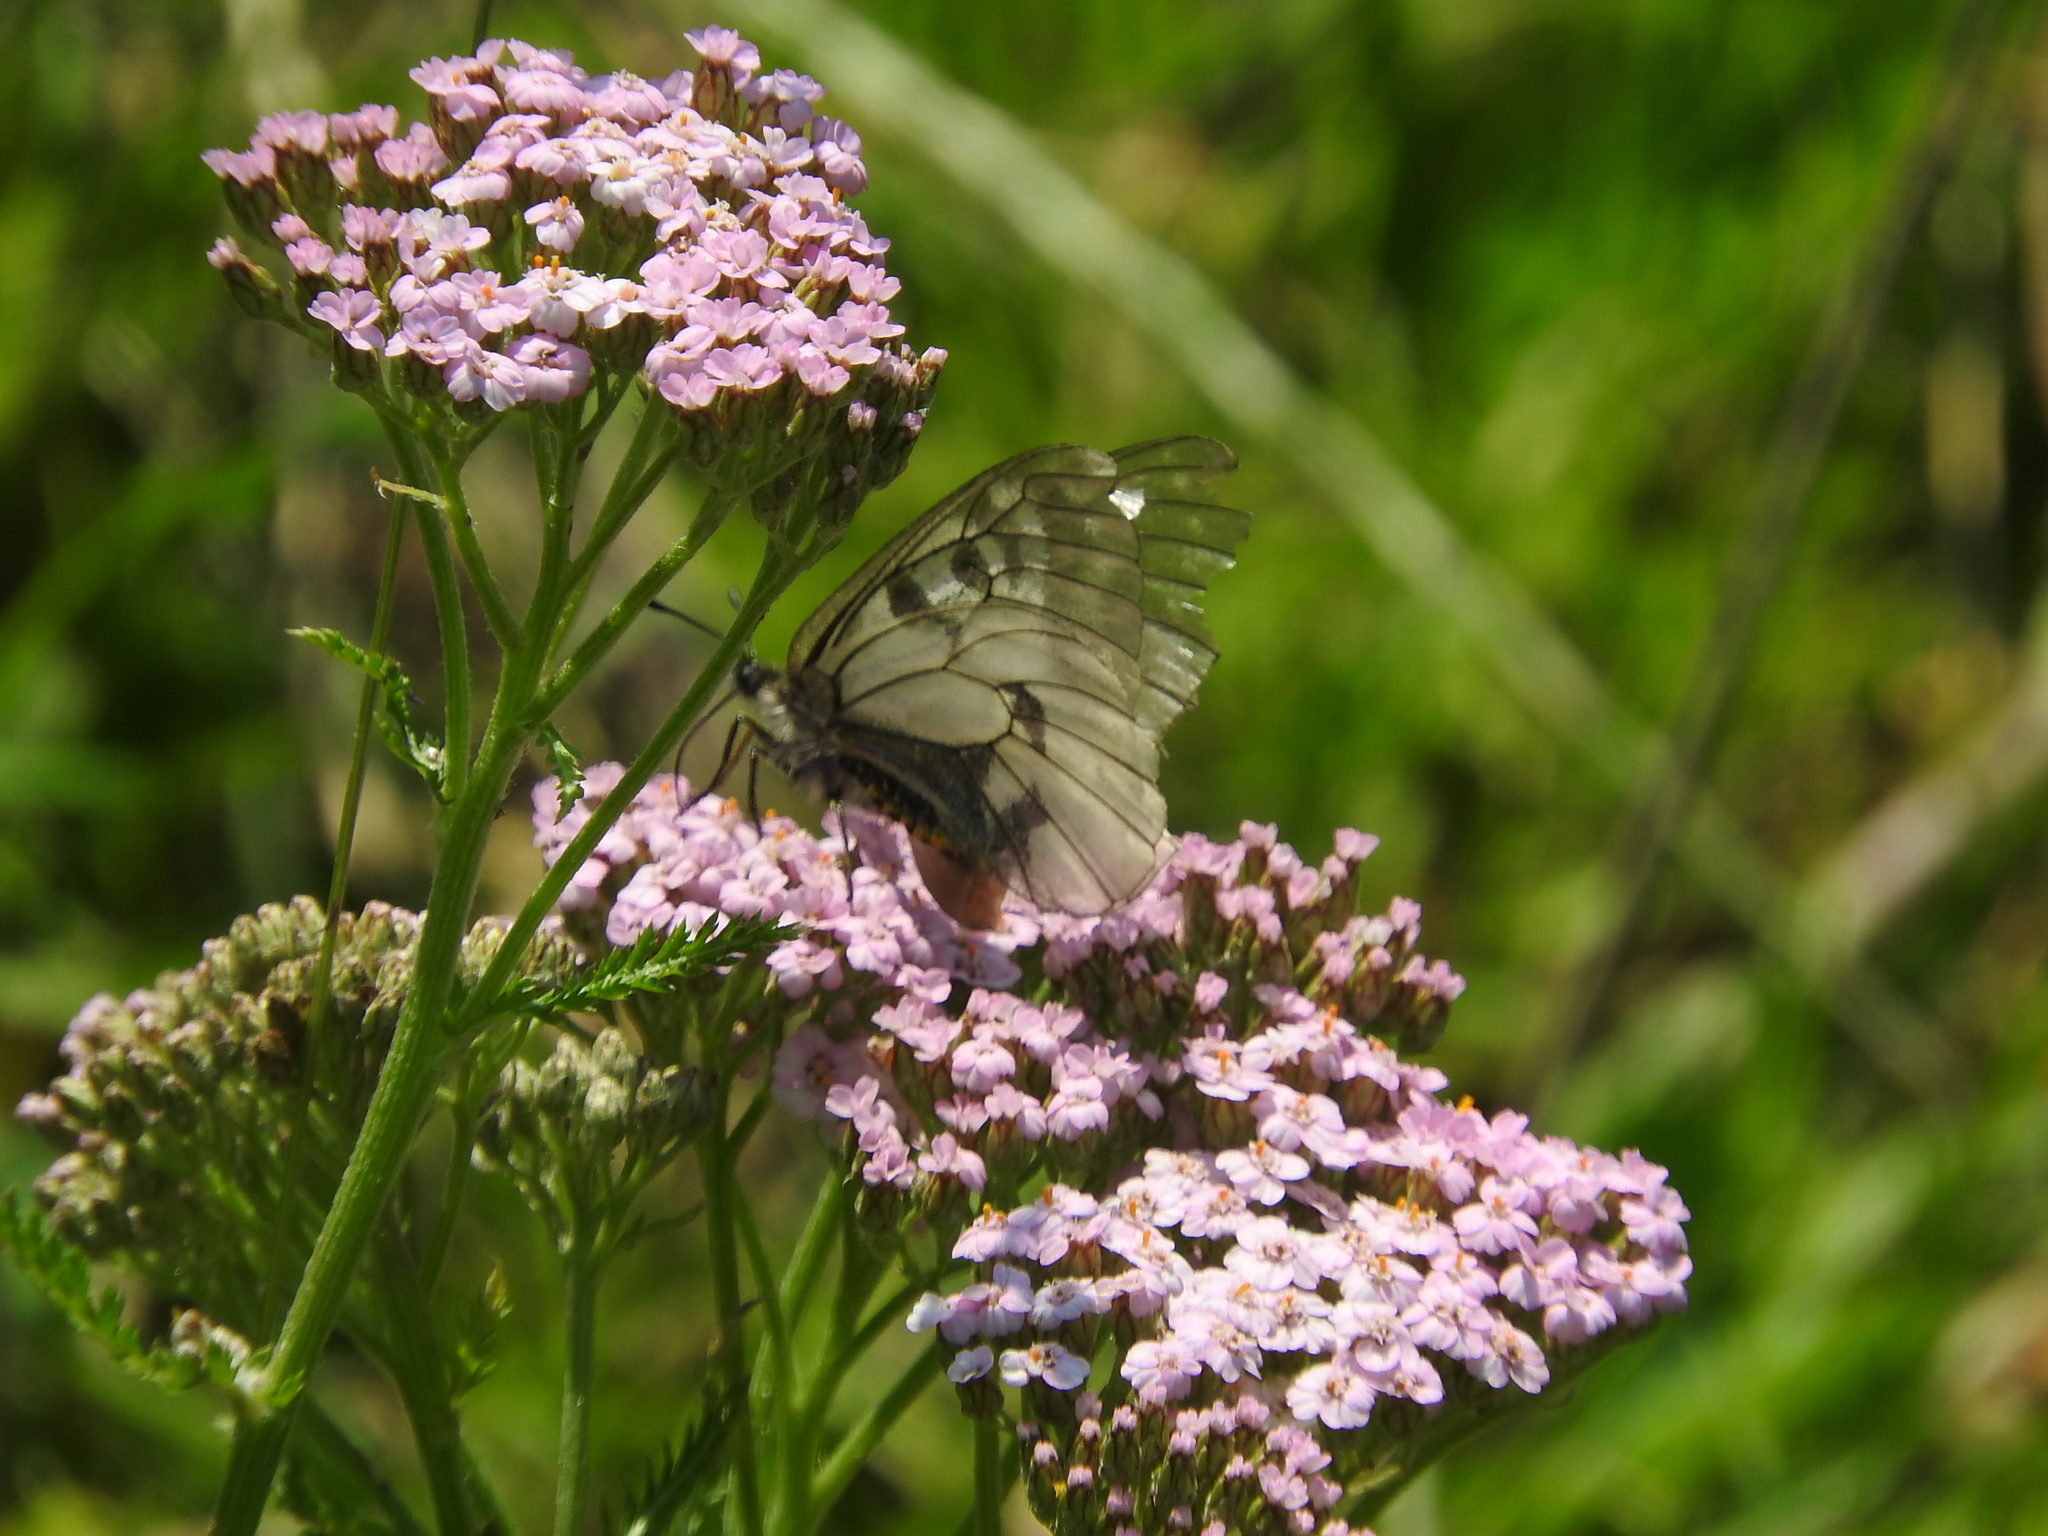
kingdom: Animalia
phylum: Arthropoda
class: Insecta
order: Lepidoptera
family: Papilionidae
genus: Parnassius
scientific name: Parnassius mnemosyne
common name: Clouded apollo
